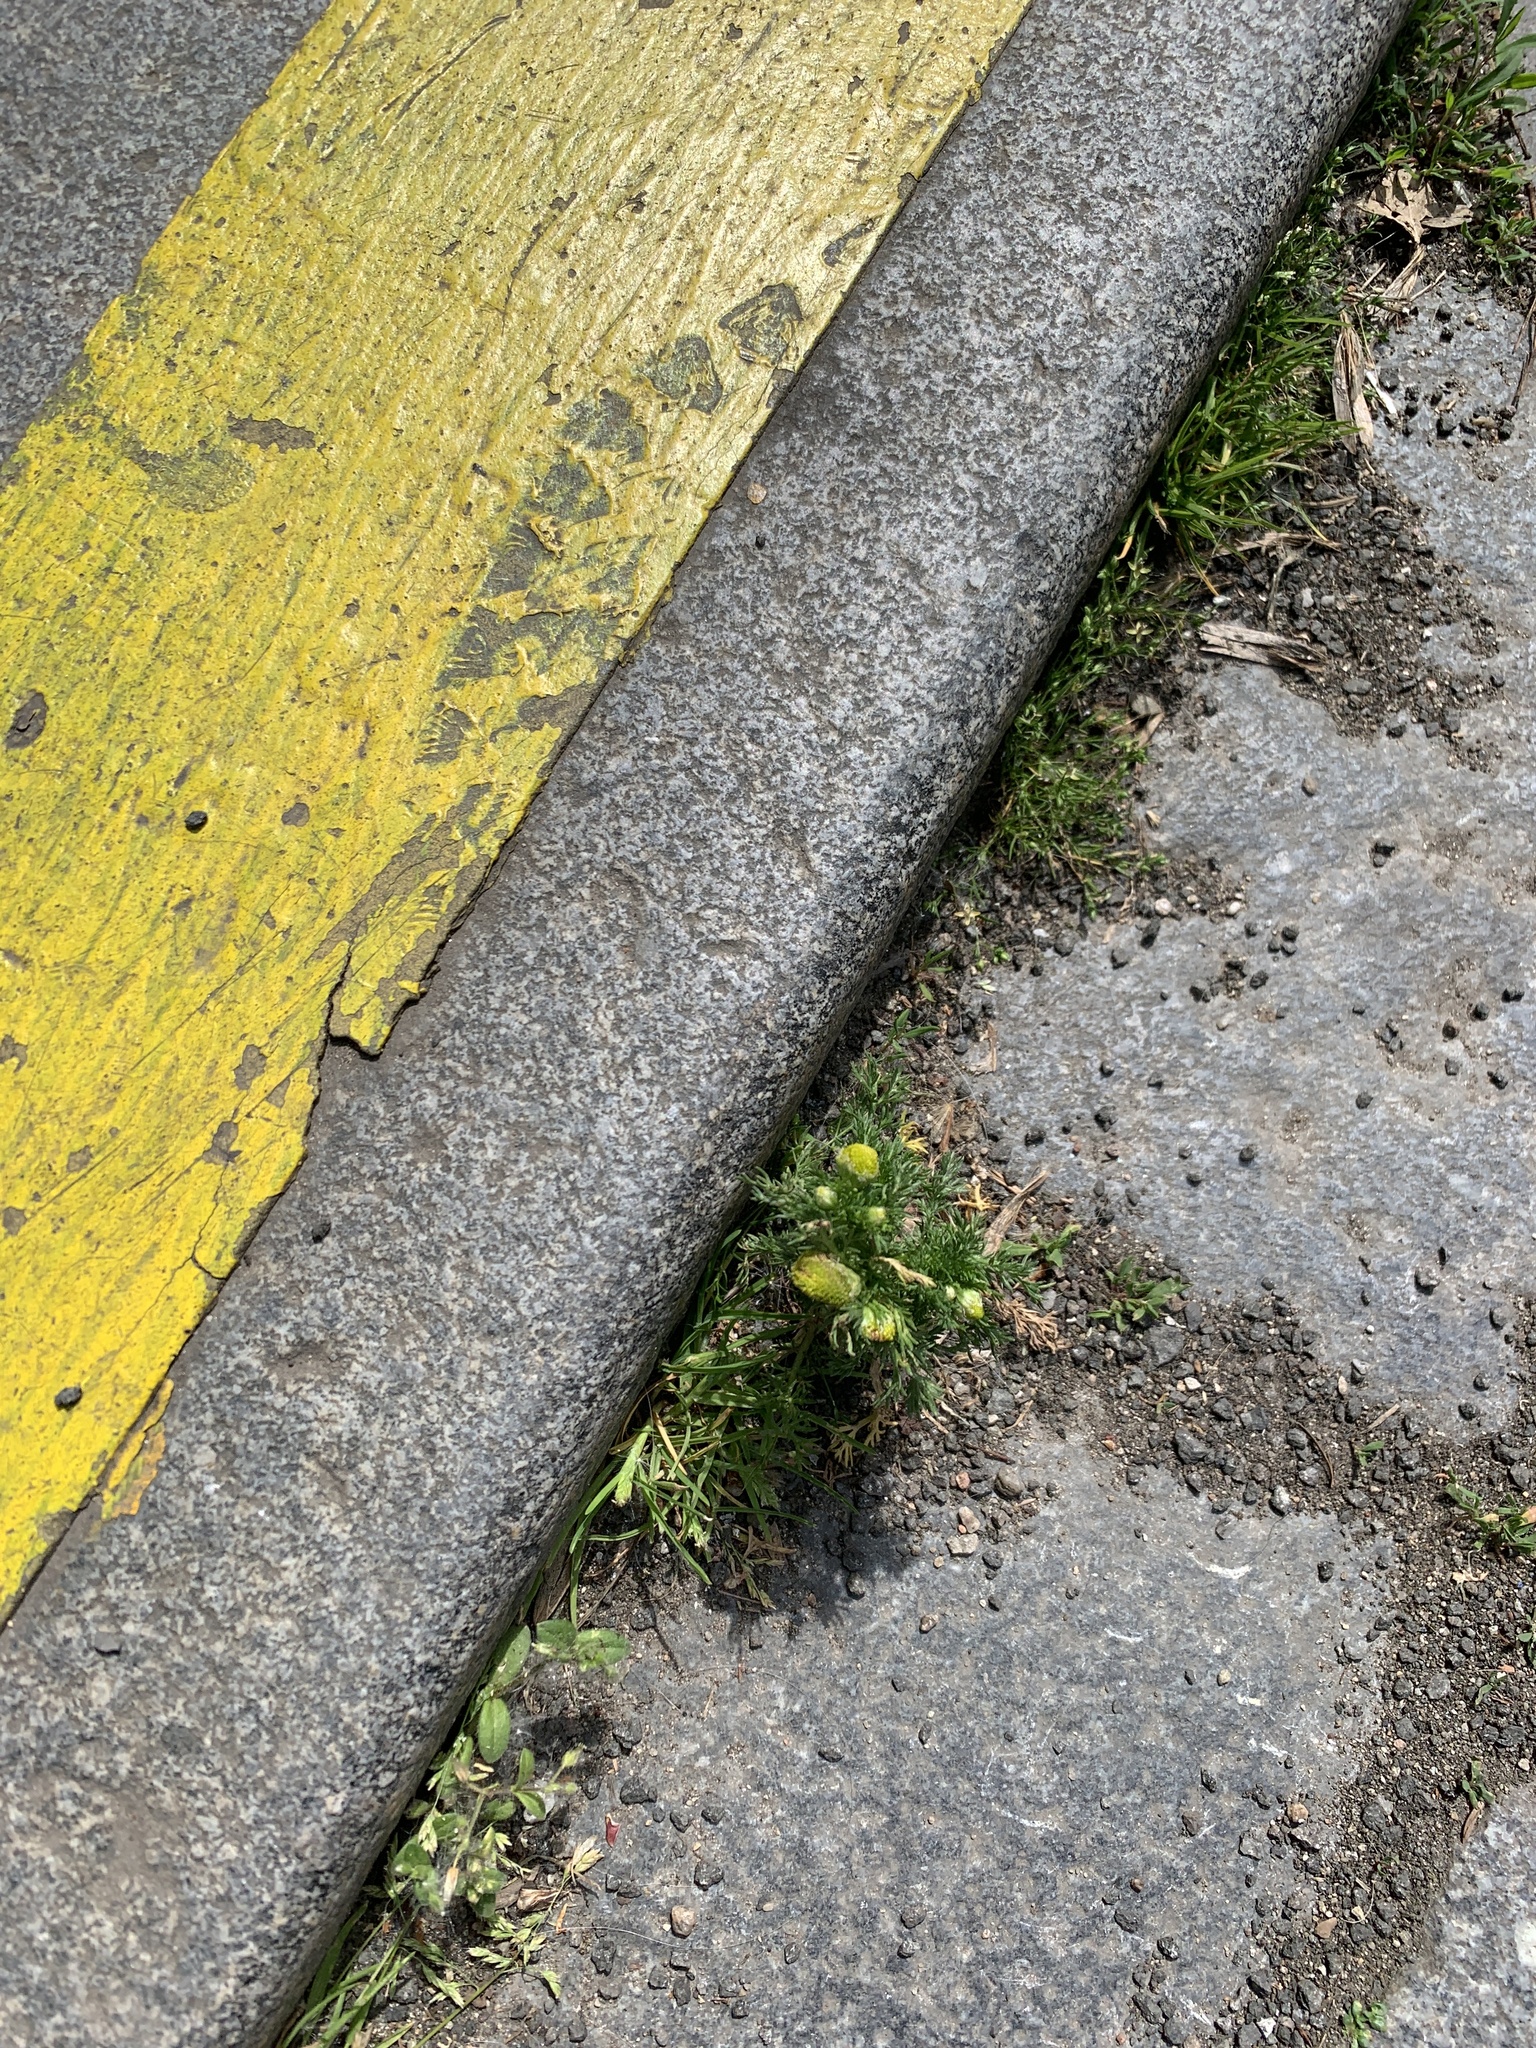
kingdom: Plantae
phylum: Tracheophyta
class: Magnoliopsida
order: Asterales
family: Asteraceae
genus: Matricaria
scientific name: Matricaria discoidea
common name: Disc mayweed
